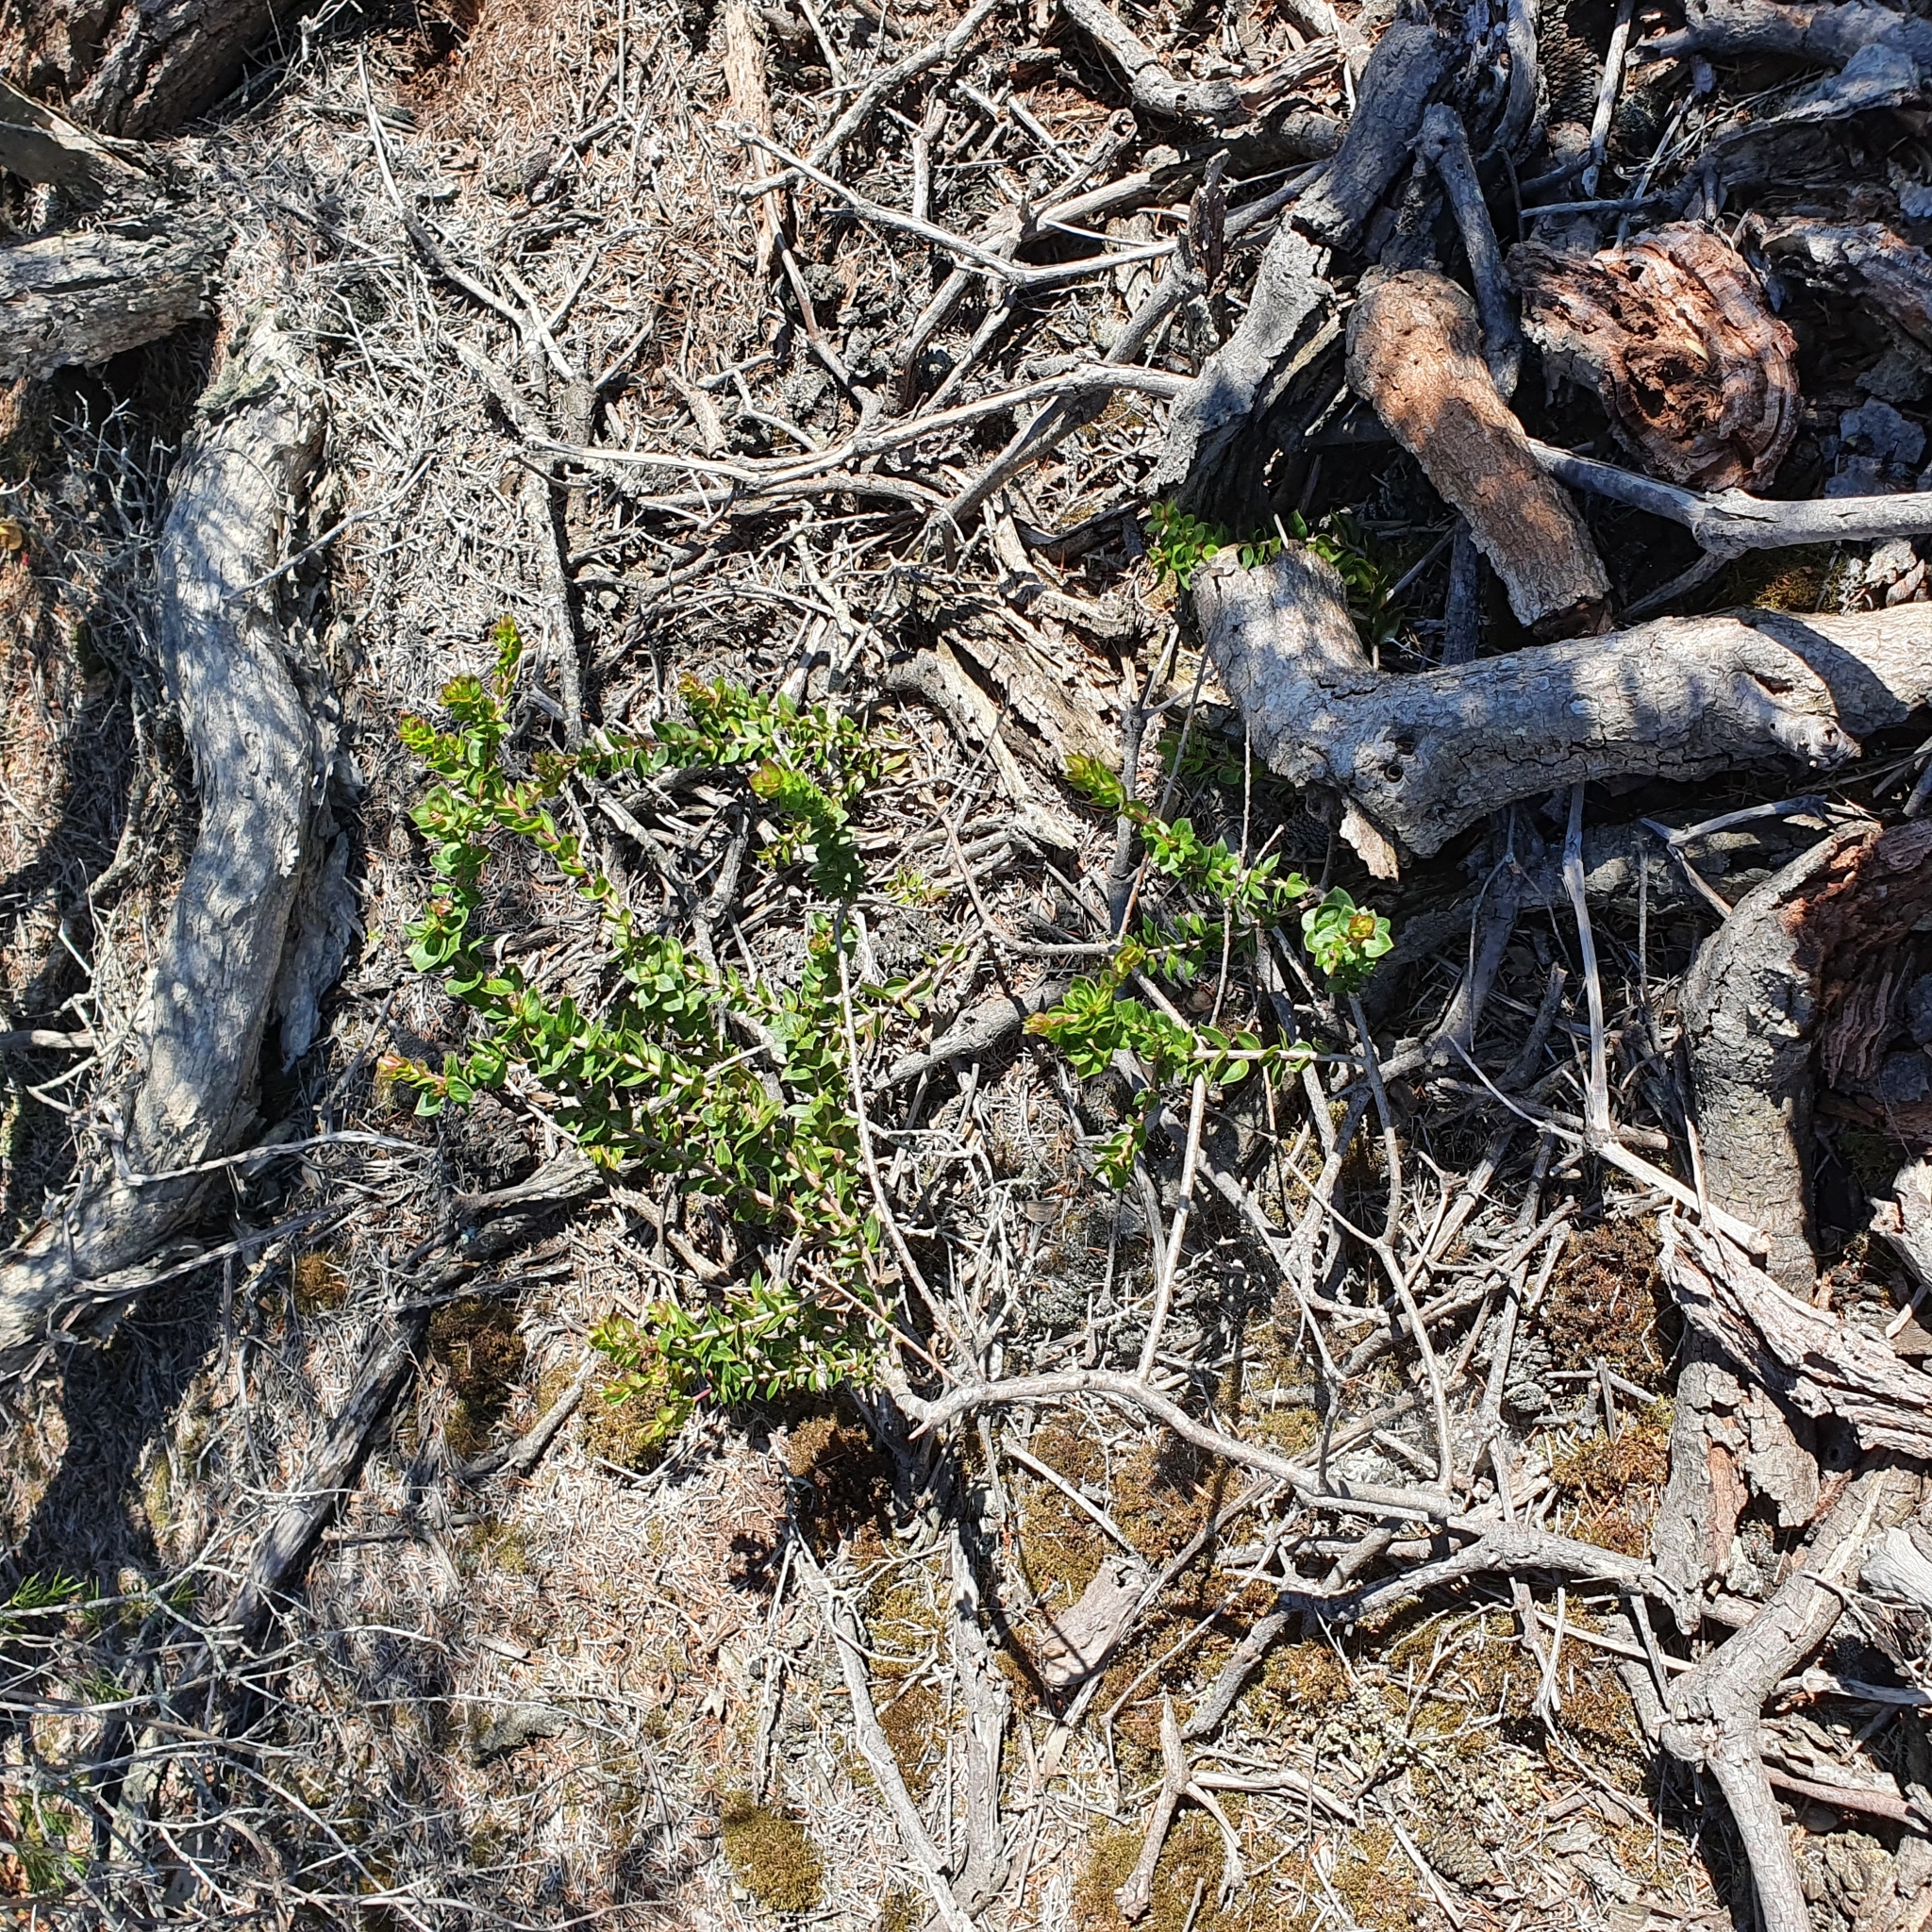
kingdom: Plantae
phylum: Tracheophyta
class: Magnoliopsida
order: Apiales
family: Apiaceae
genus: Platysace
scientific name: Platysace lanceolata
